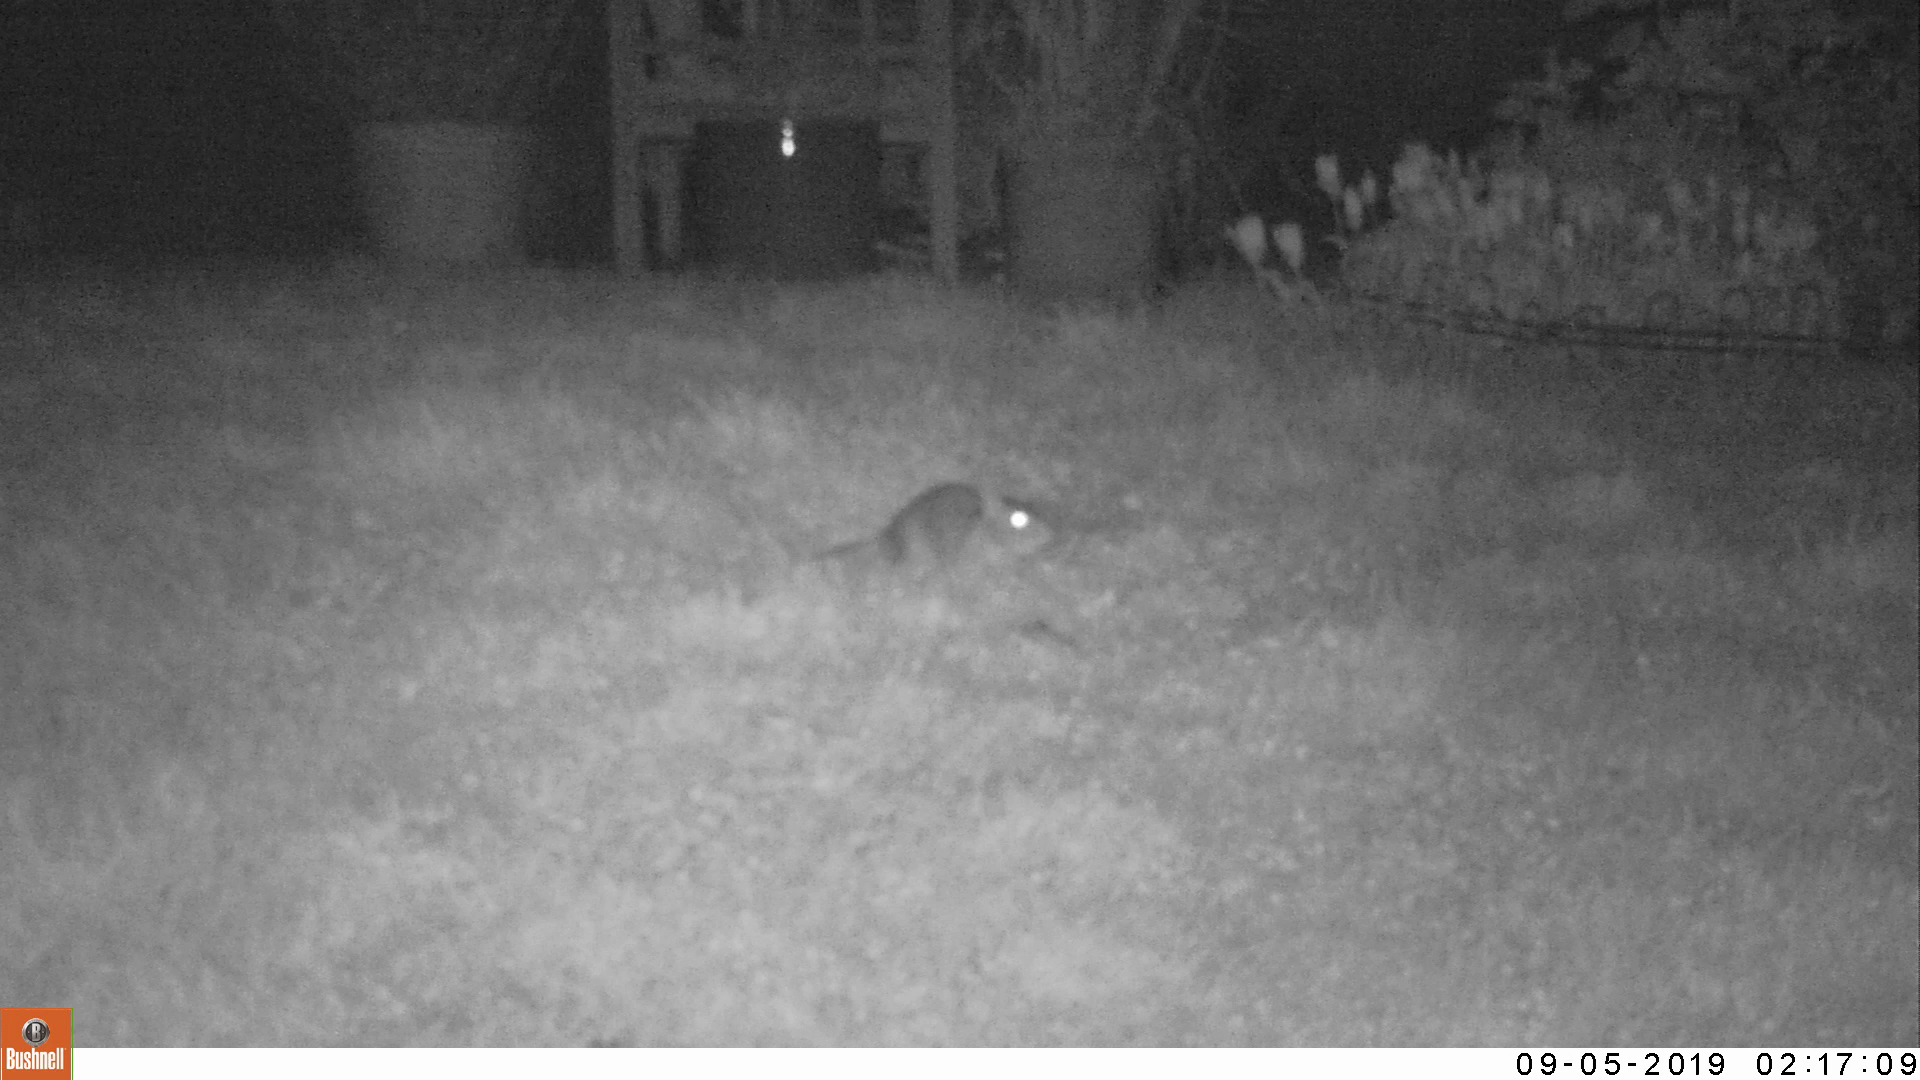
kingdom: Animalia
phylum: Chordata
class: Mammalia
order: Rodentia
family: Muridae
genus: Rattus
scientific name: Rattus norvegicus
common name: Brown rat
